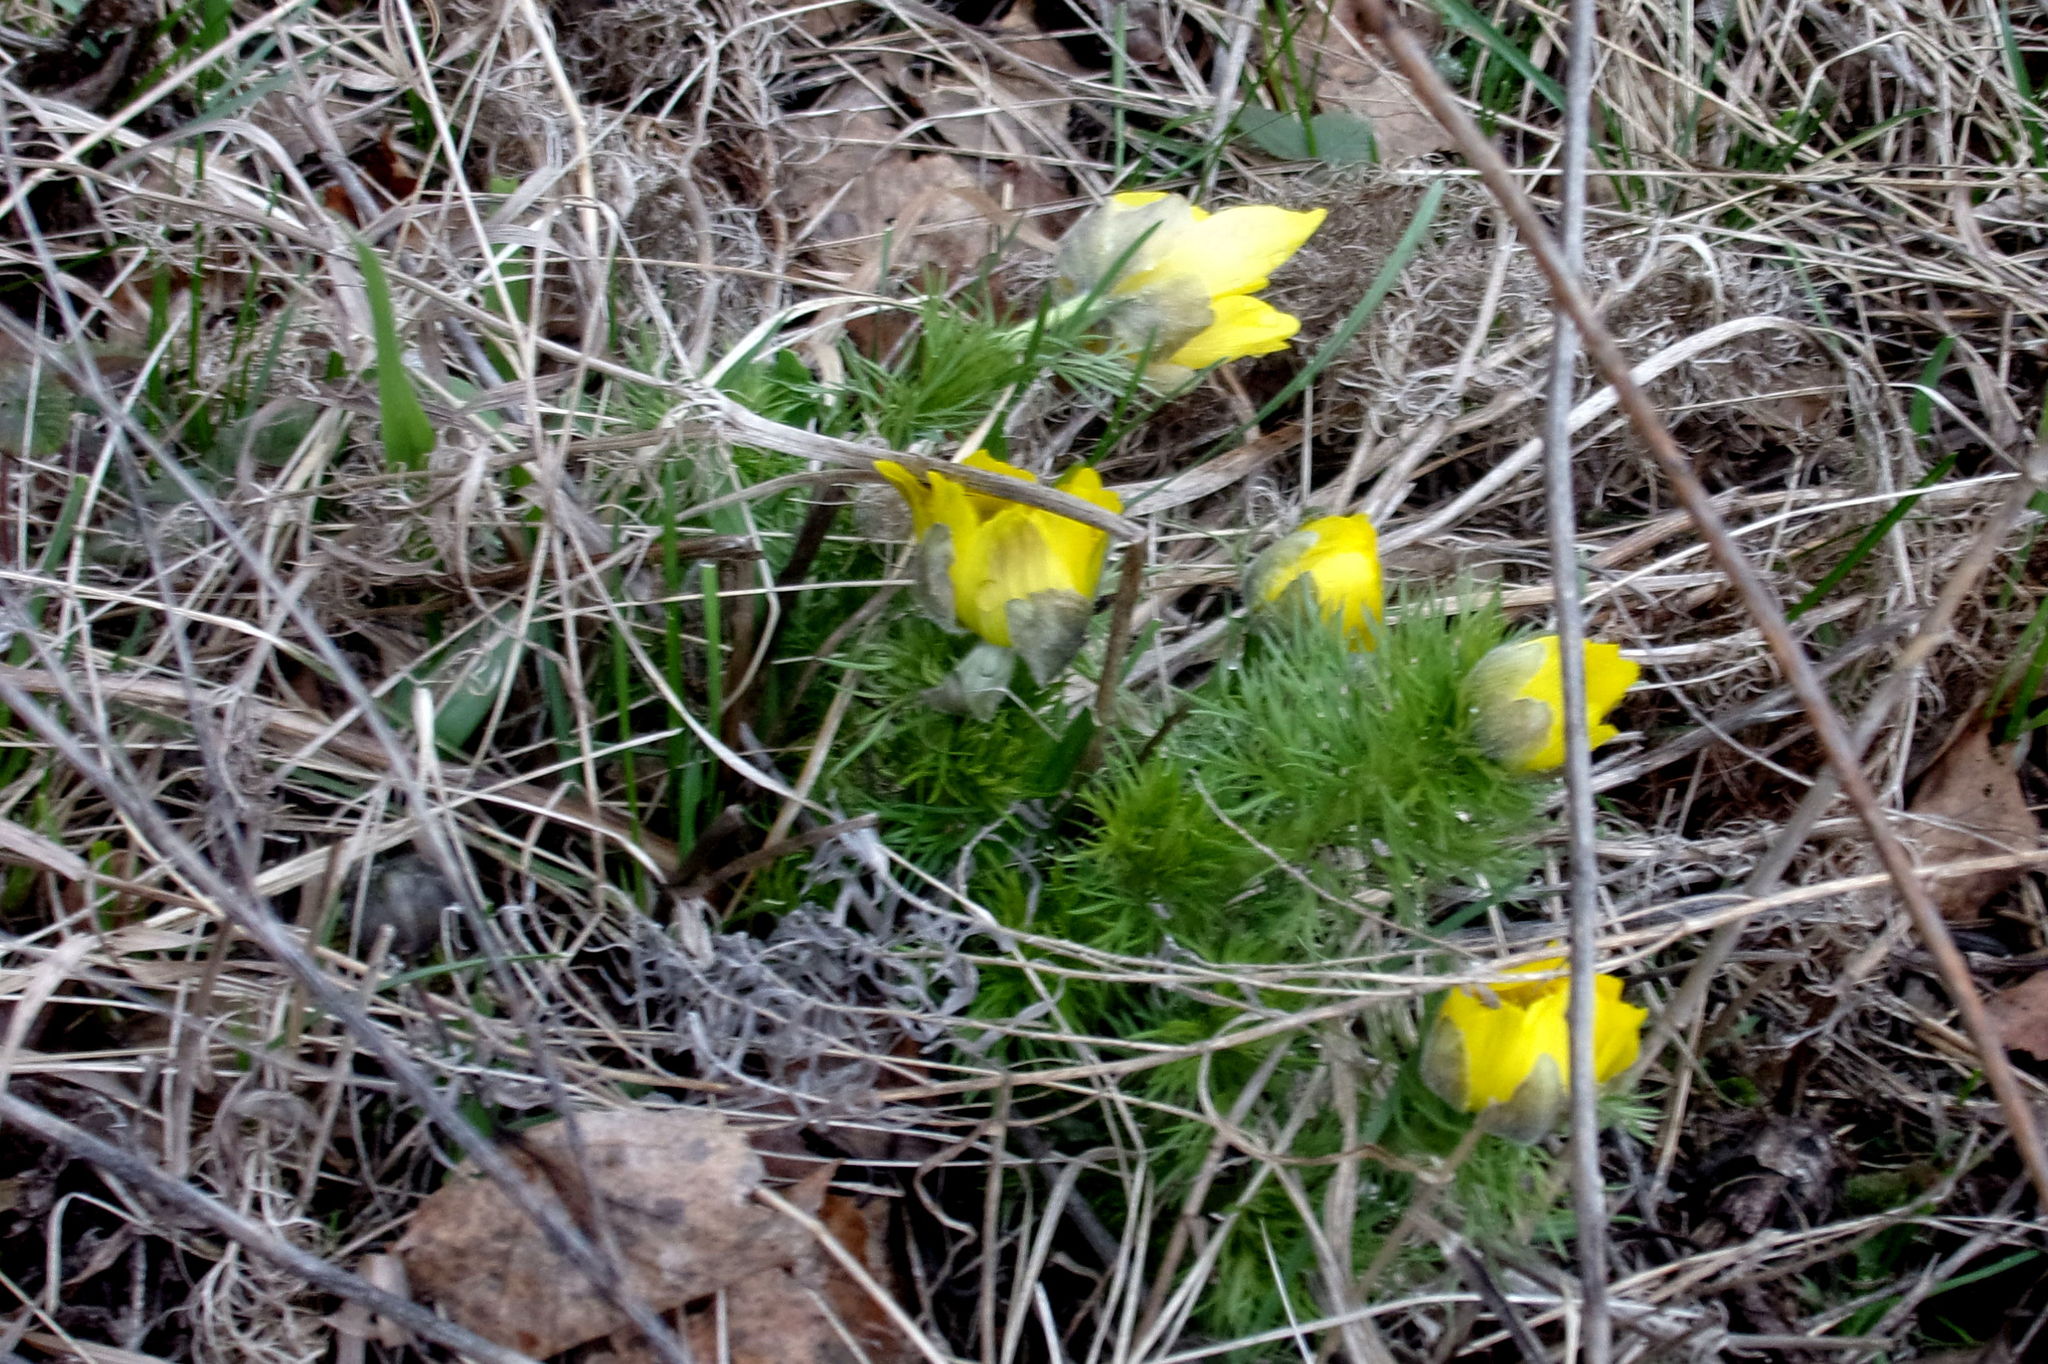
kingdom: Plantae
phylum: Tracheophyta
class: Magnoliopsida
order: Ranunculales
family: Ranunculaceae
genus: Adonis
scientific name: Adonis vernalis
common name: Yellow pheasants-eye
